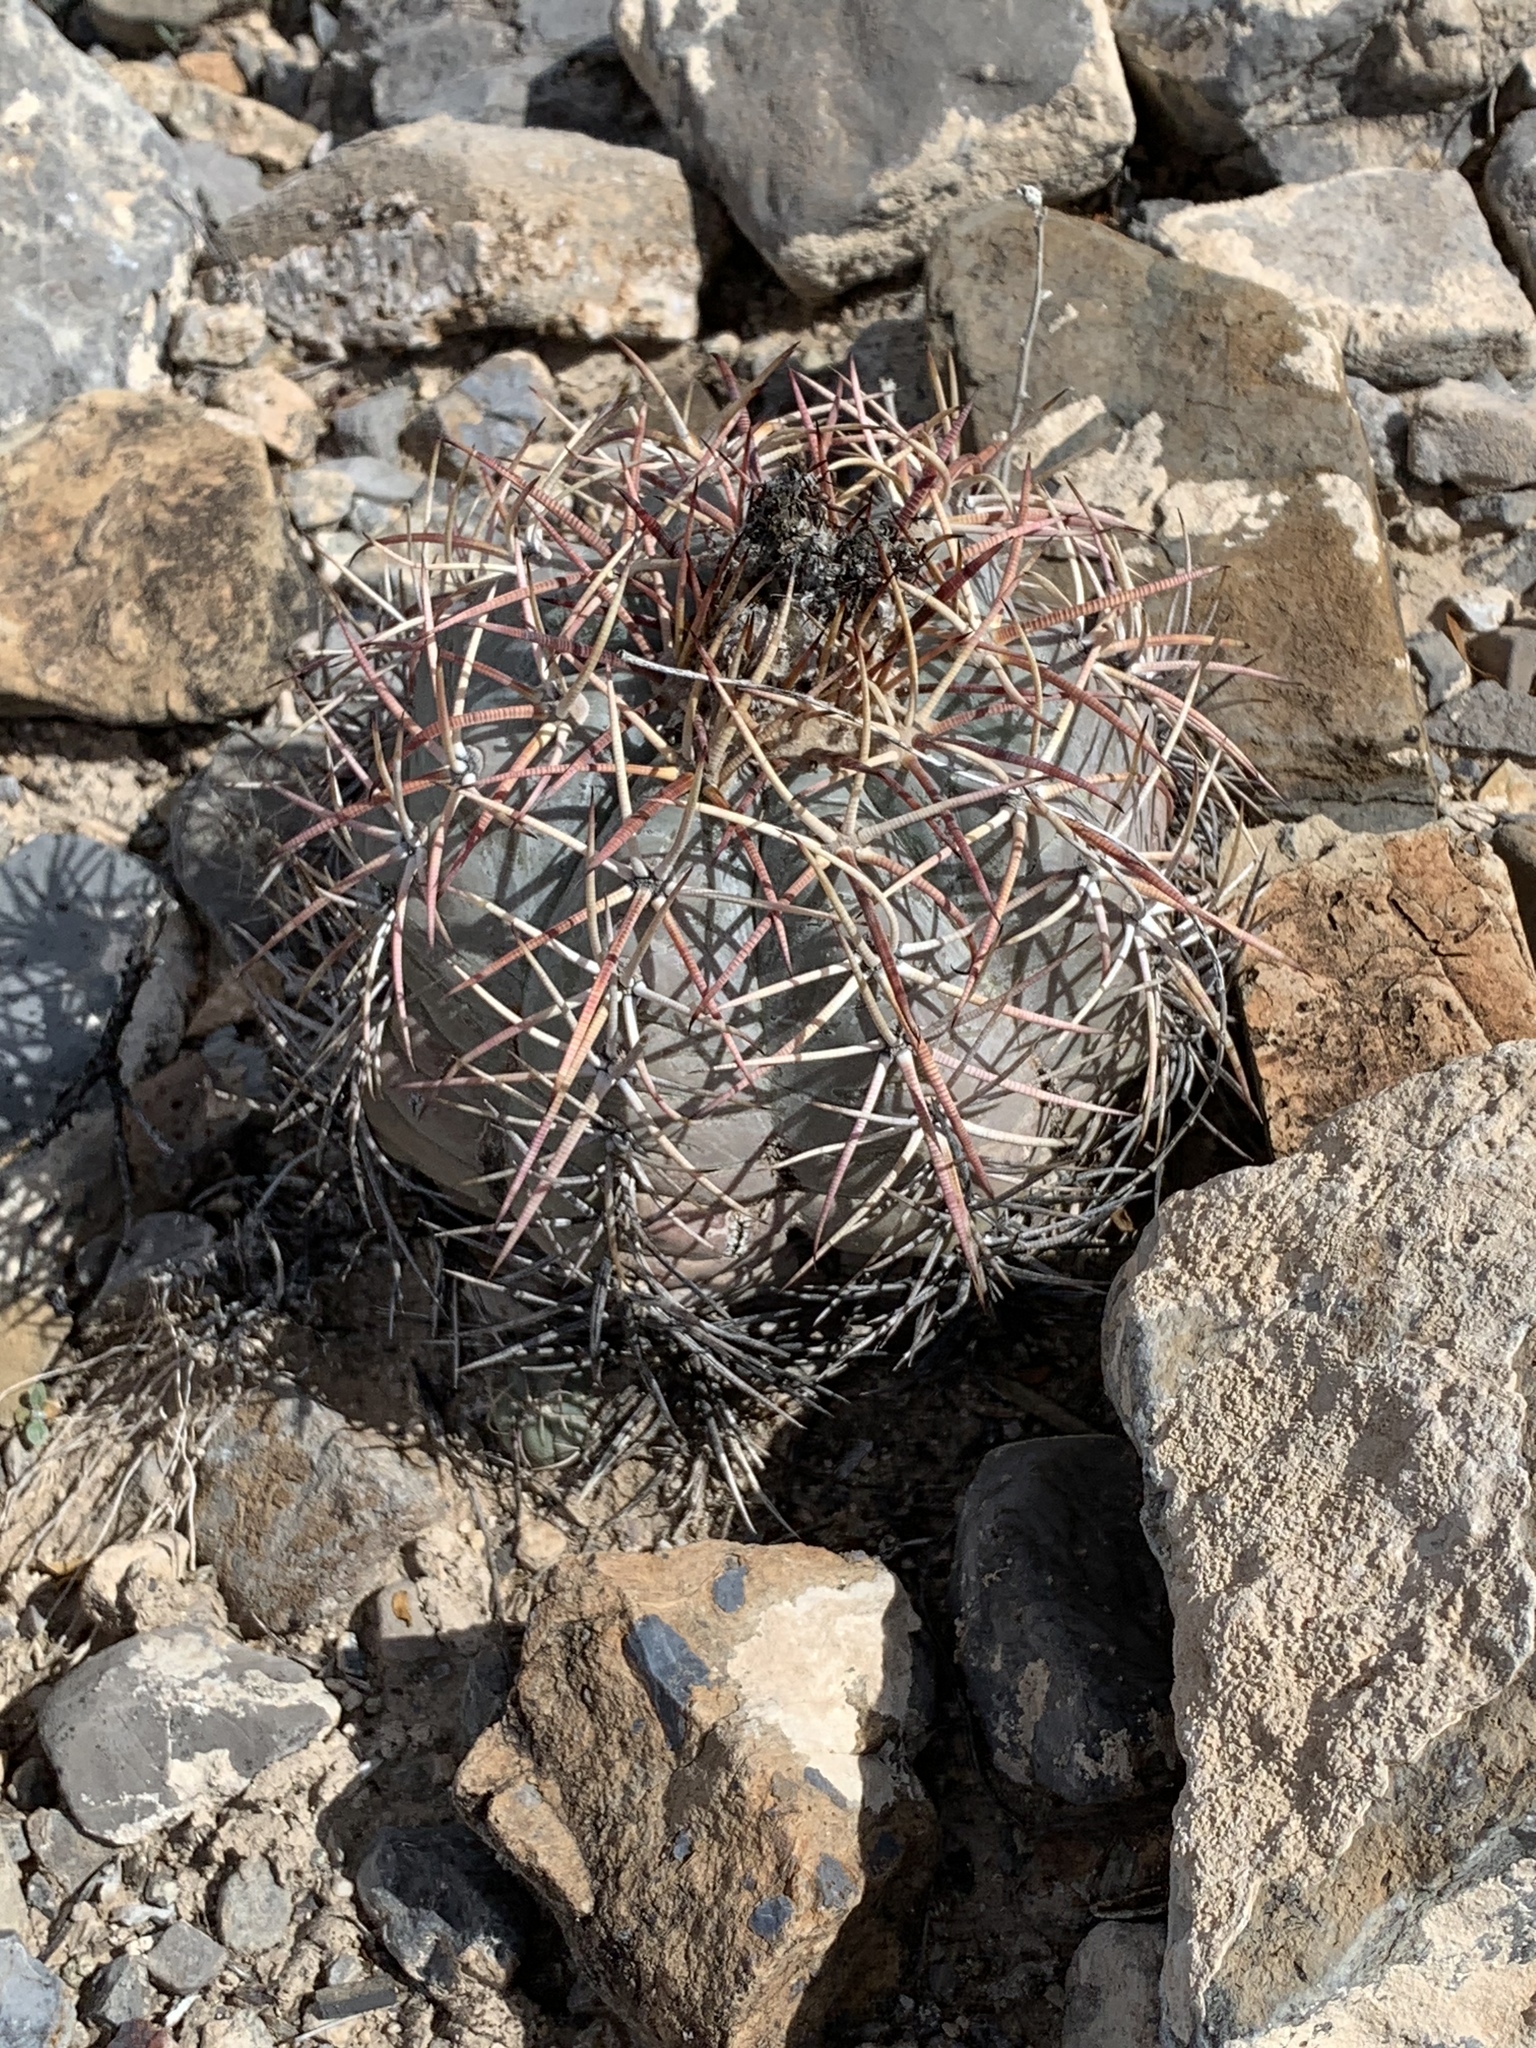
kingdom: Plantae
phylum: Tracheophyta
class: Magnoliopsida
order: Caryophyllales
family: Cactaceae
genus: Echinocactus
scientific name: Echinocactus horizonthalonius
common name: Devilshead
